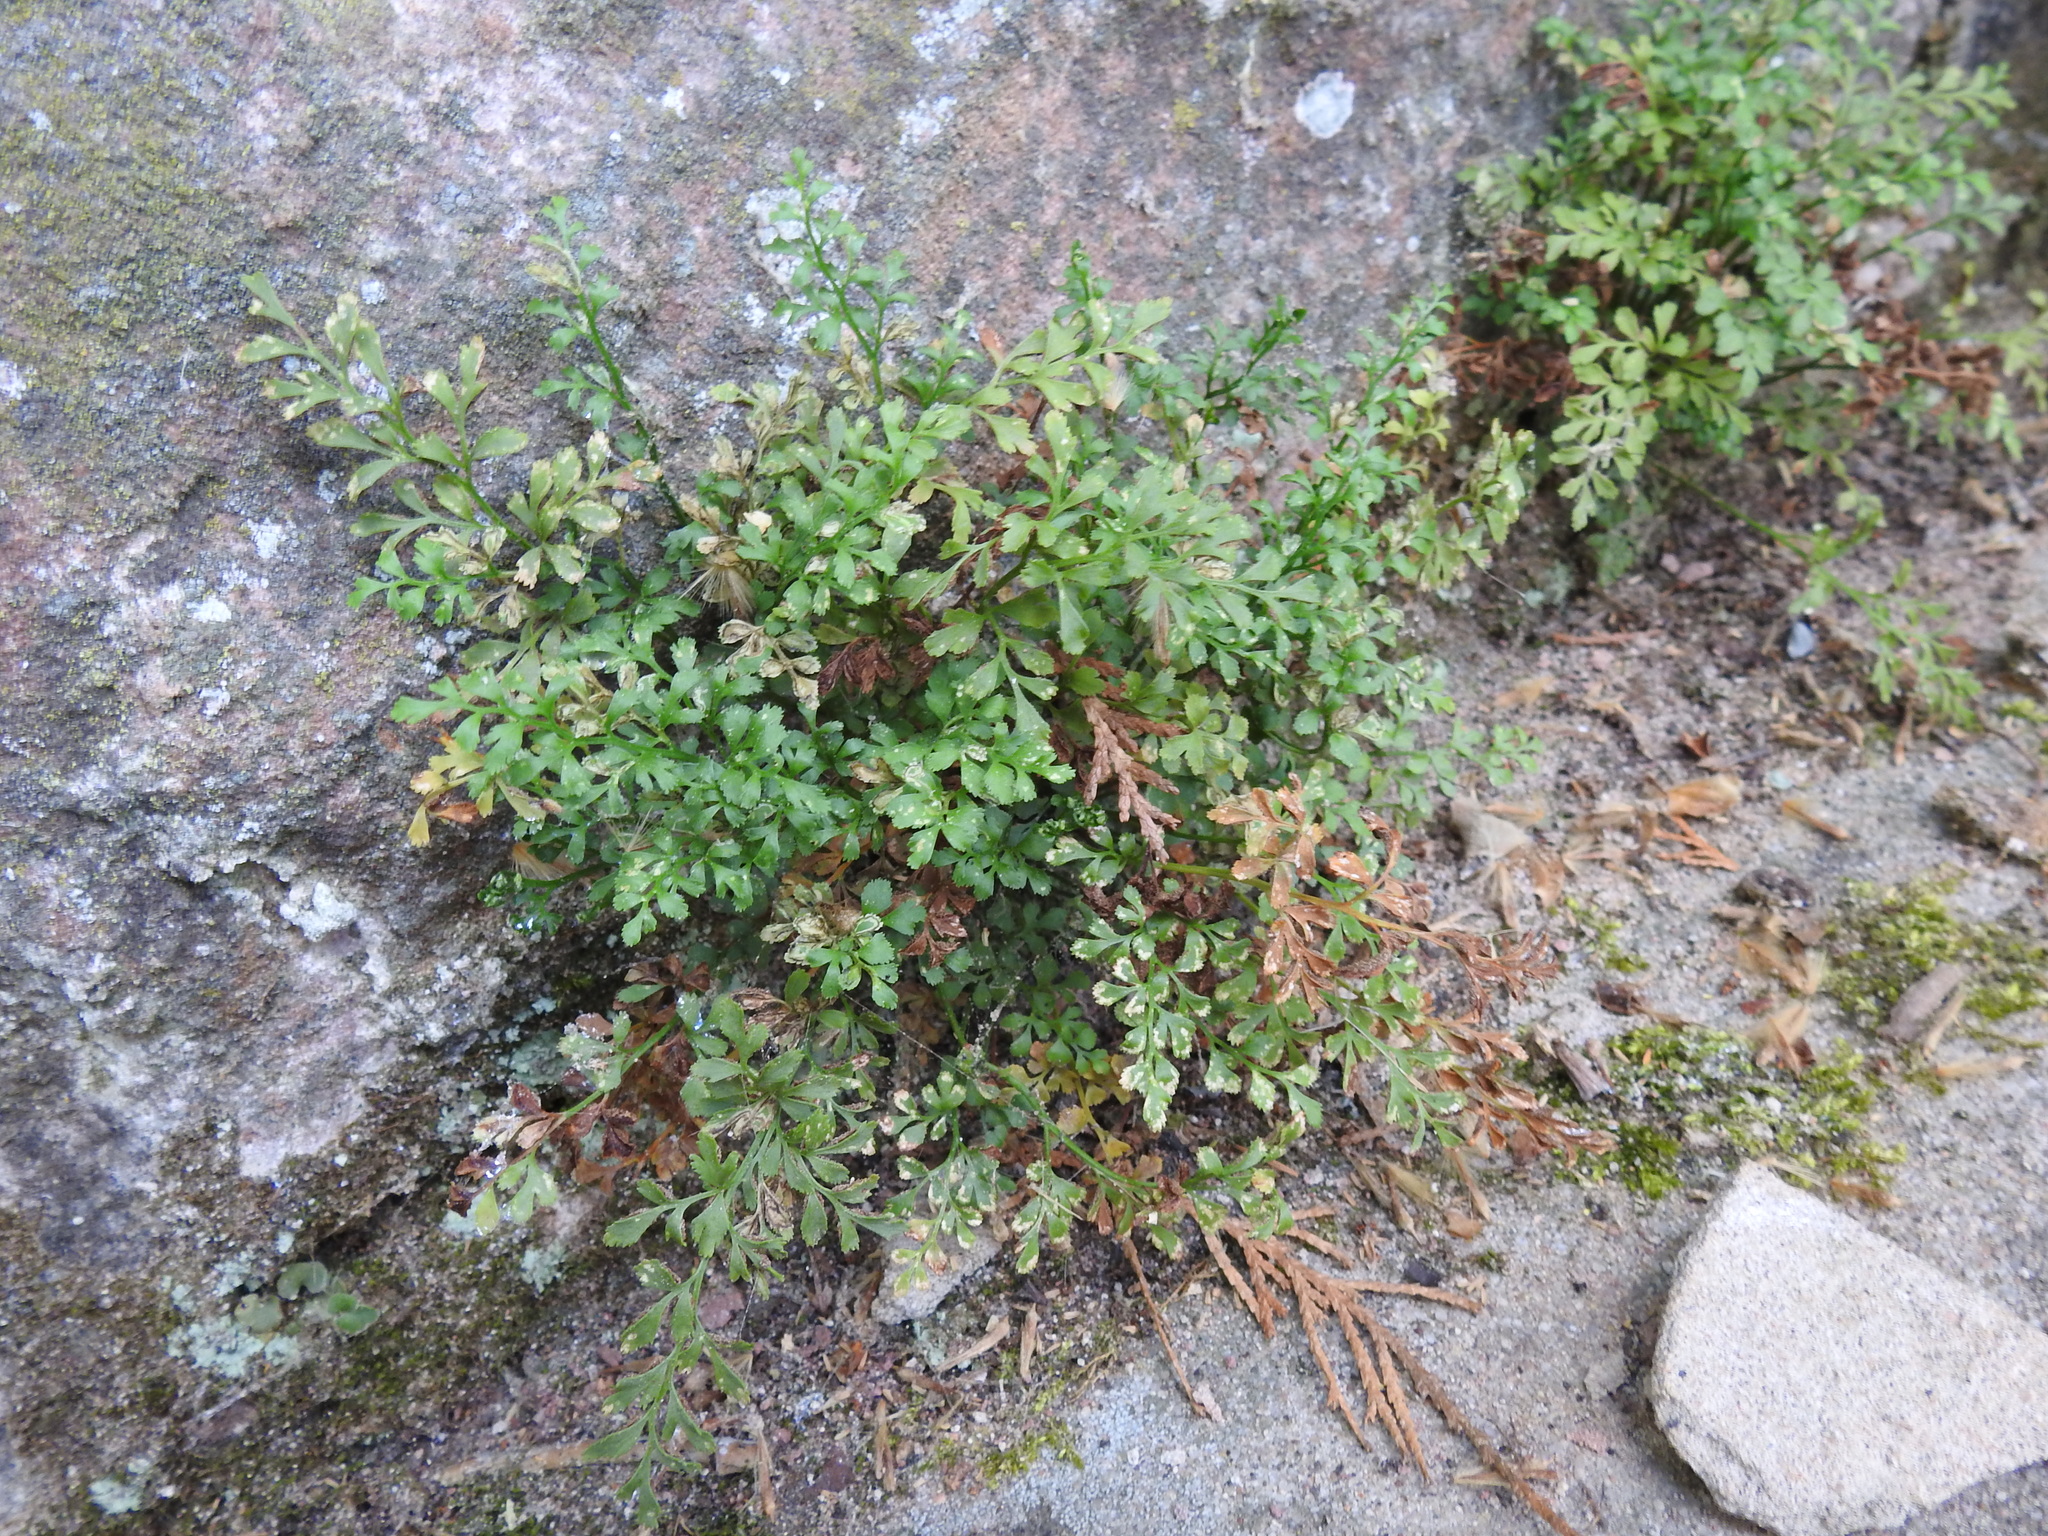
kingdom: Plantae
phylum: Tracheophyta
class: Polypodiopsida
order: Polypodiales
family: Aspleniaceae
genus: Asplenium
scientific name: Asplenium ruta-muraria
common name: Wall-rue
